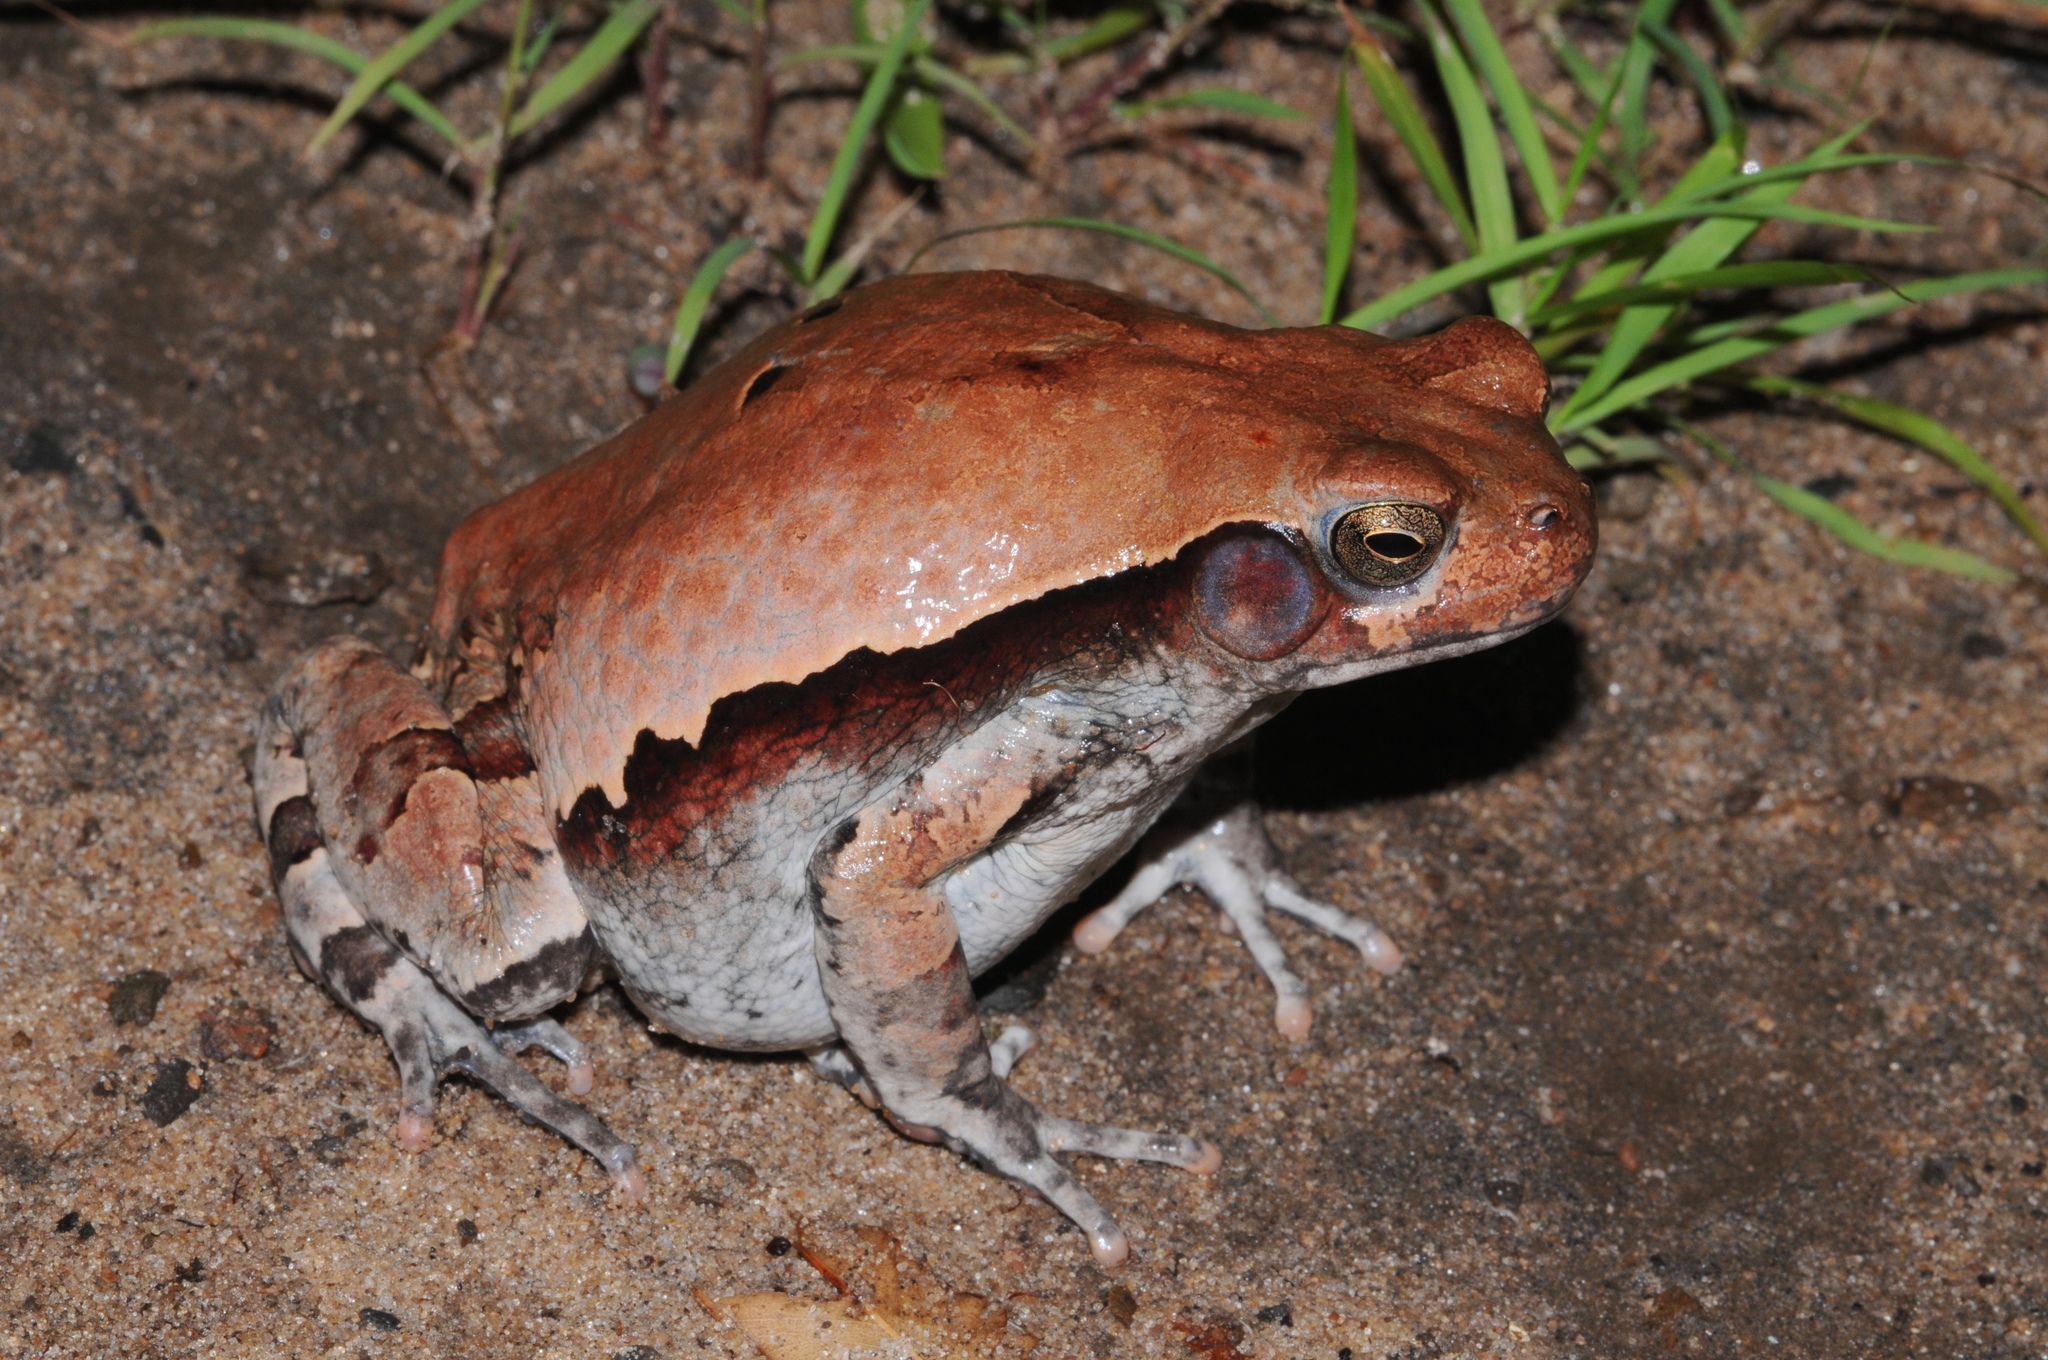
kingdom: Animalia
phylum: Chordata
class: Amphibia
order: Anura
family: Bufonidae
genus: Schismaderma
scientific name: Schismaderma carens
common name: African split-skin toad
